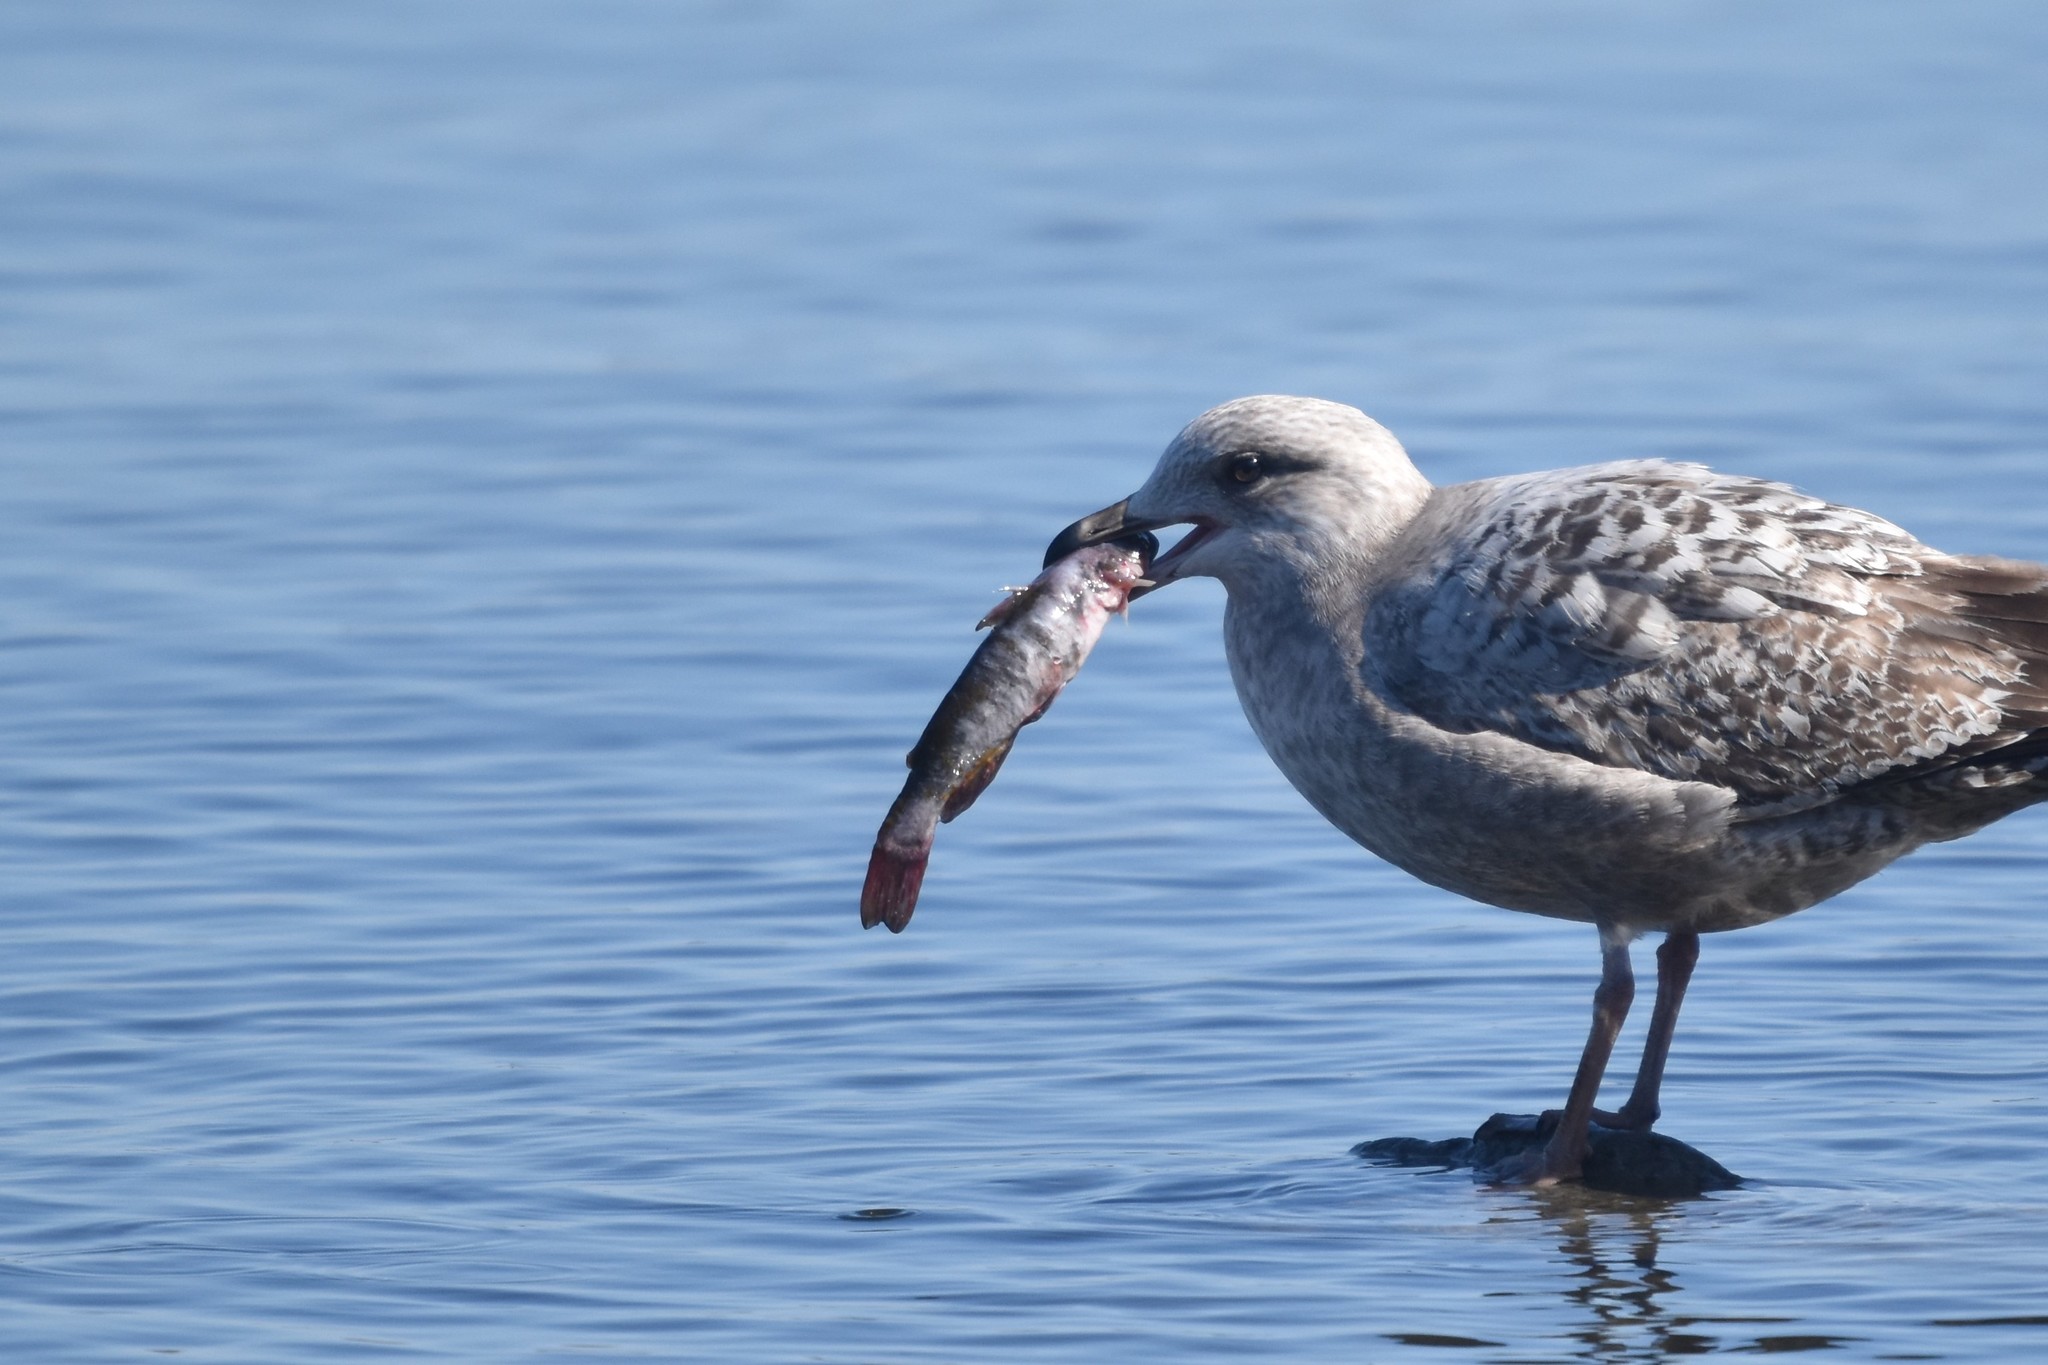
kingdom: Animalia
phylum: Chordata
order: Siluriformes
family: Ictaluridae
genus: Ameiurus
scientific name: Ameiurus nebulosus
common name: Brown bullhead
